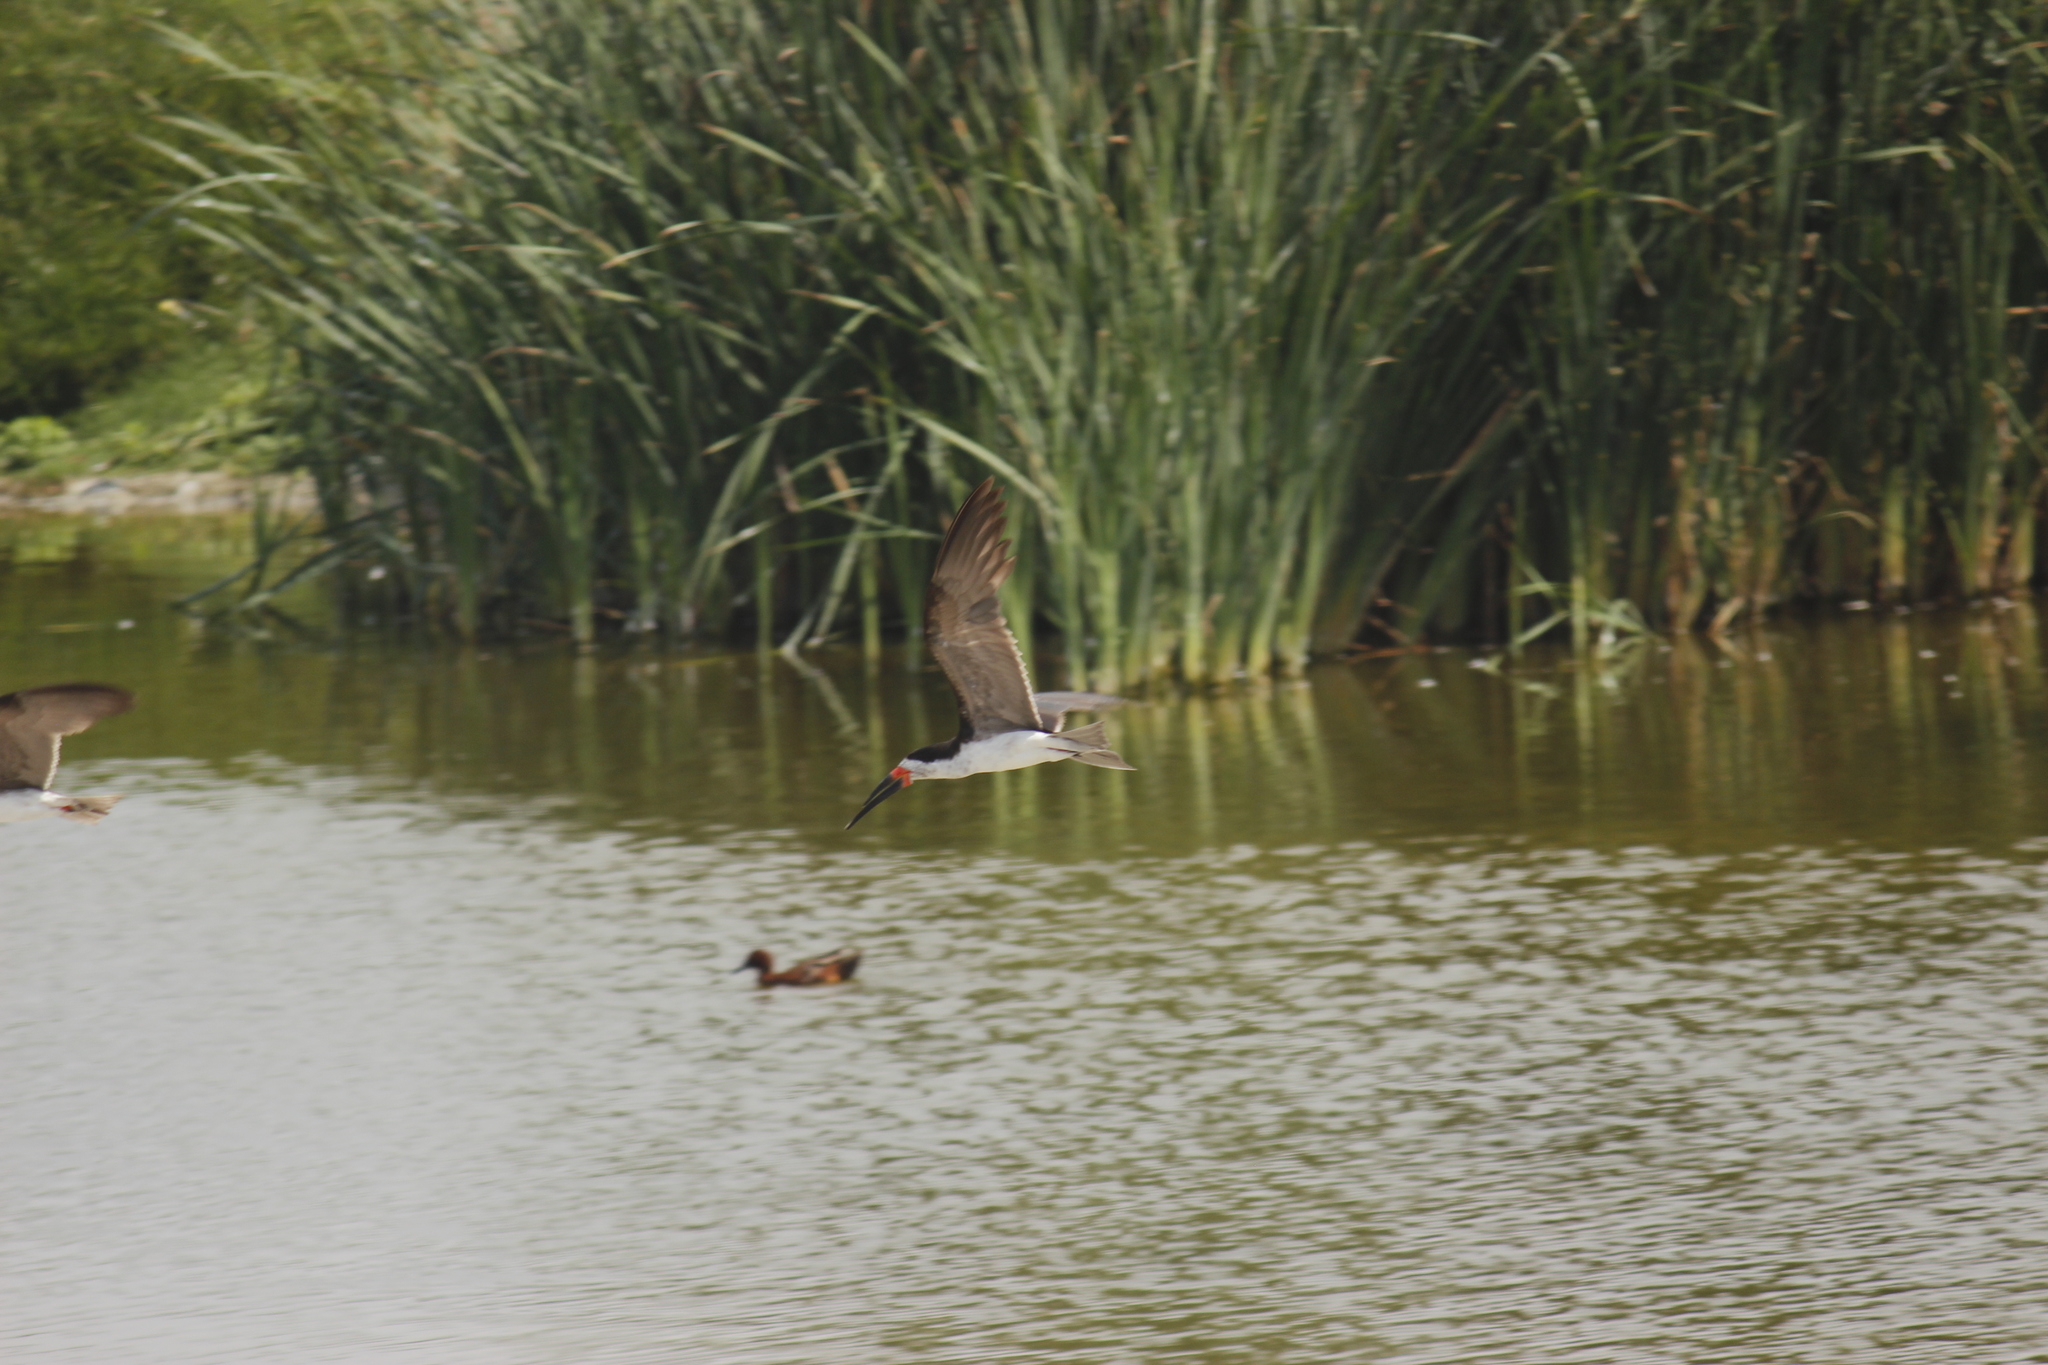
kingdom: Animalia
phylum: Chordata
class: Aves
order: Charadriiformes
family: Laridae
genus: Rynchops
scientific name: Rynchops niger
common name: Black skimmer
